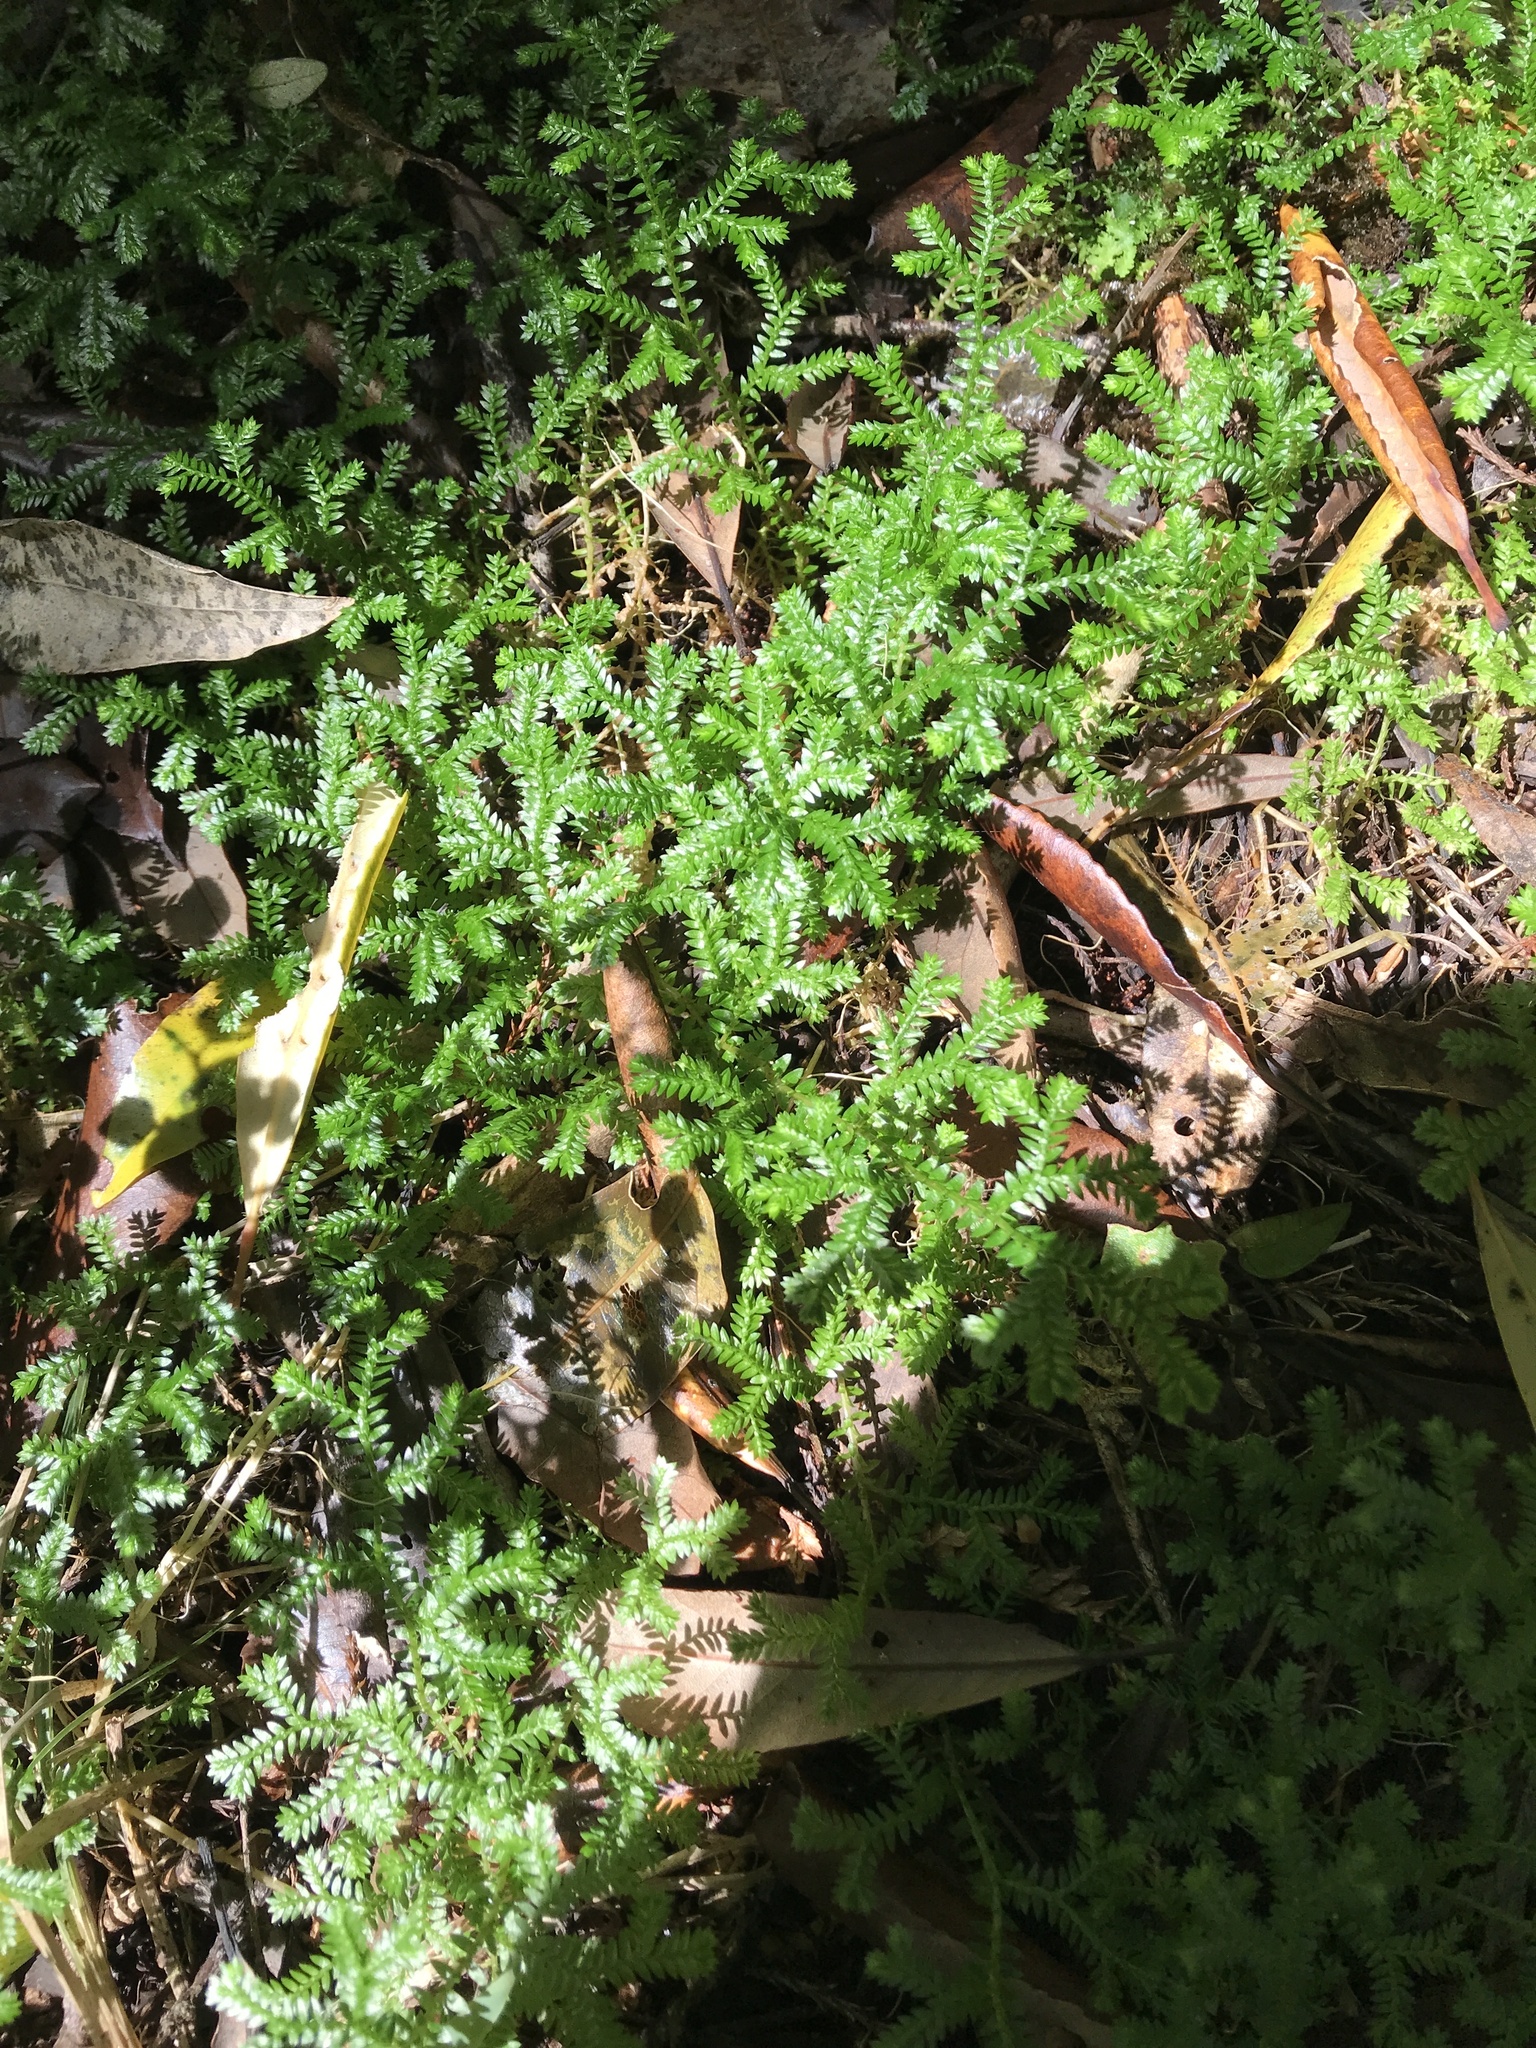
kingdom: Plantae
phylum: Tracheophyta
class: Lycopodiopsida
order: Selaginellales
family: Selaginellaceae
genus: Selaginella
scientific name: Selaginella kraussiana
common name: Krauss' spikemoss
